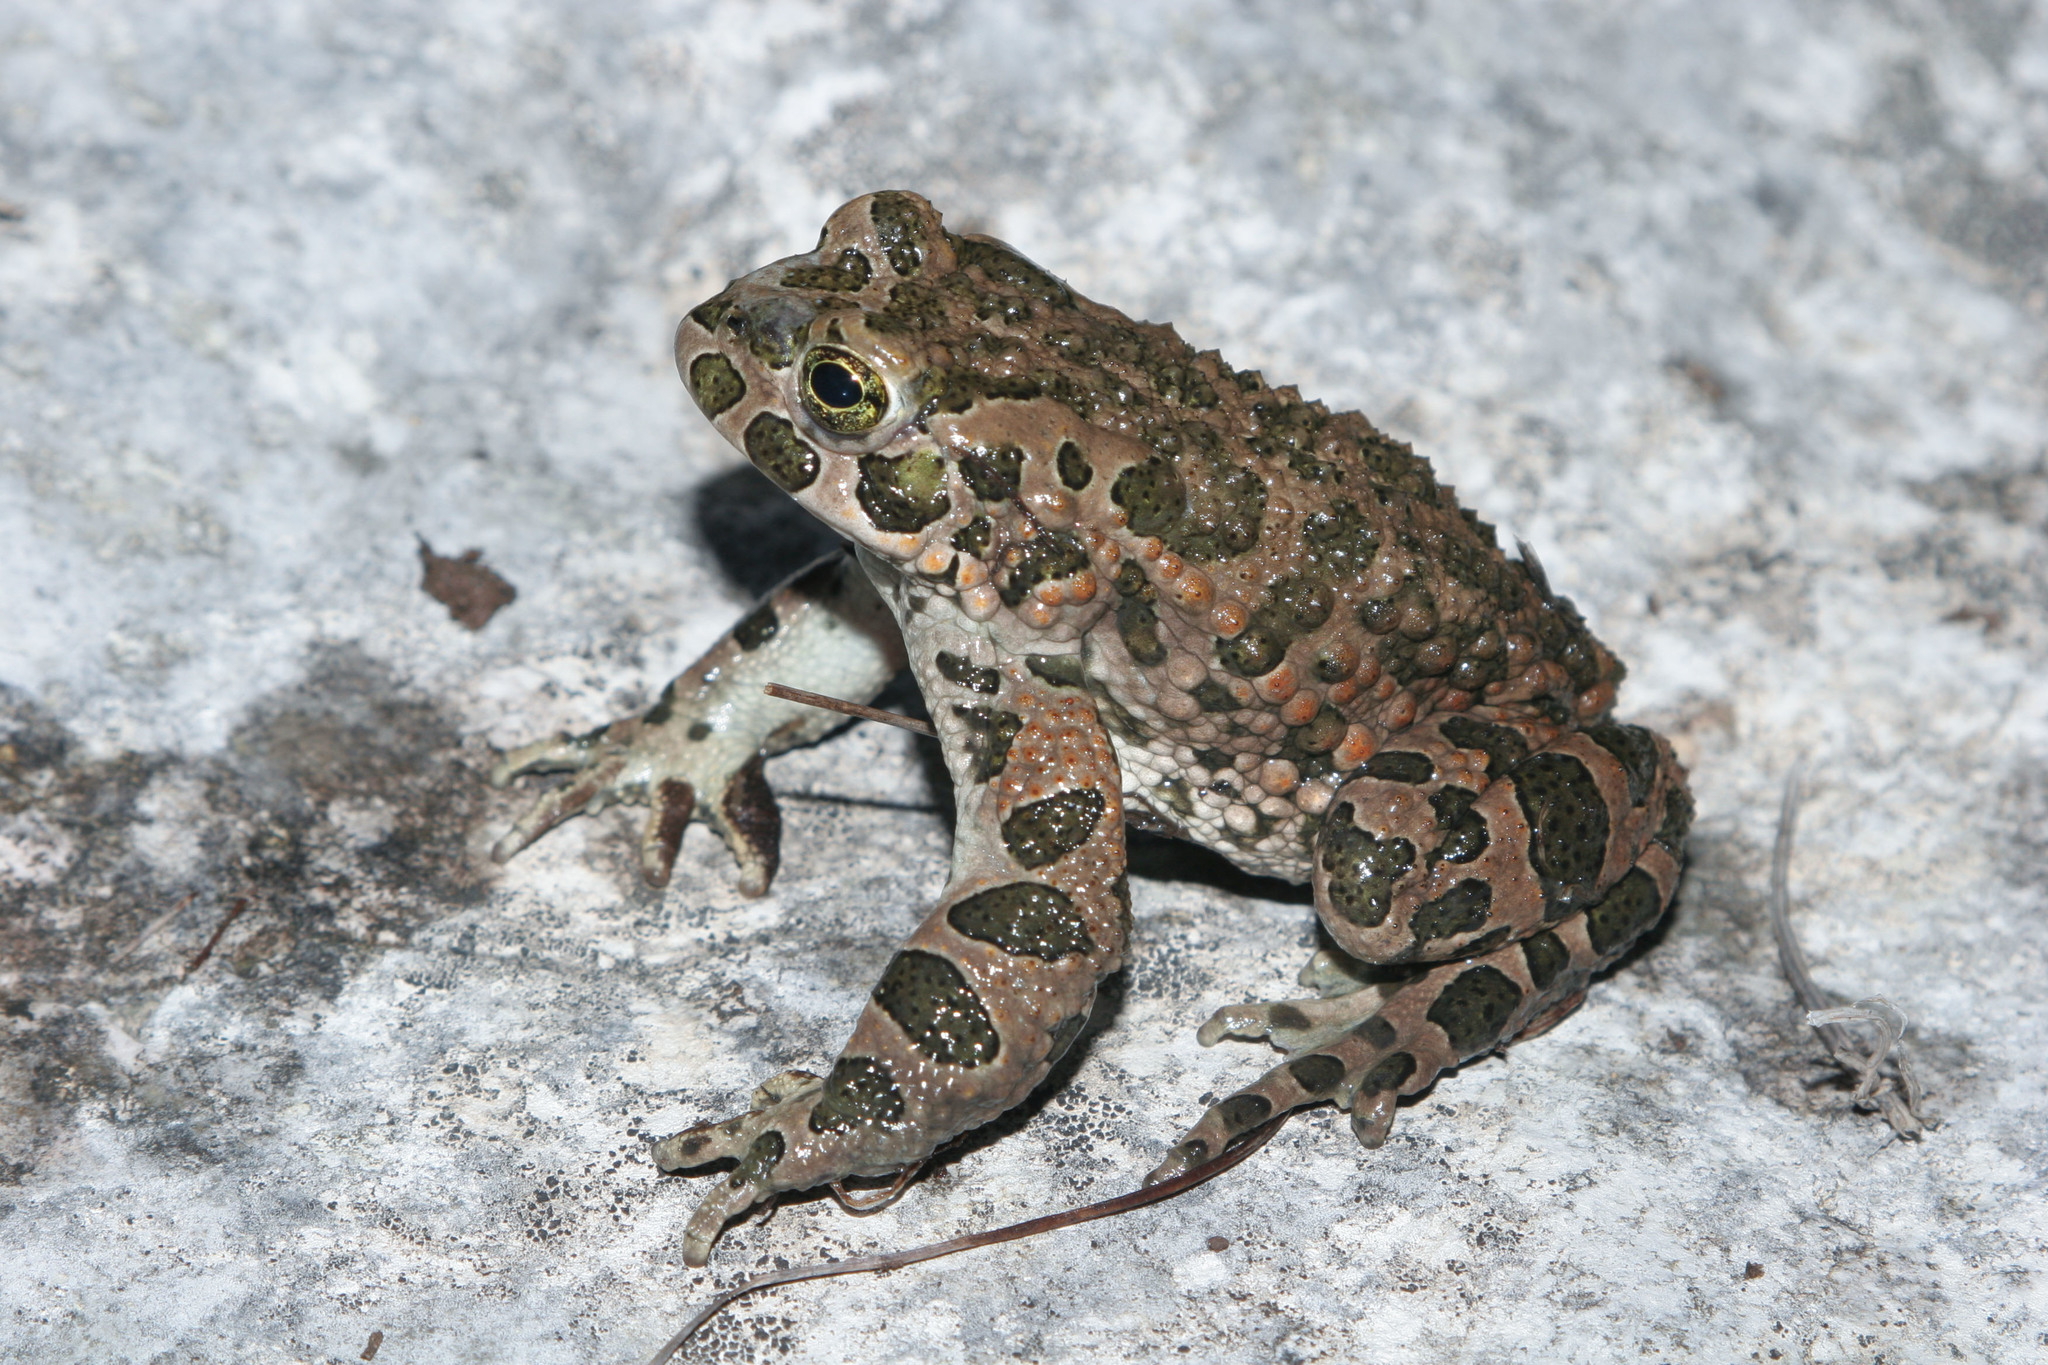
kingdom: Animalia
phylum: Chordata
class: Amphibia
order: Anura
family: Bufonidae
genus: Bufotes
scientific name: Bufotes viridis
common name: European green toad
